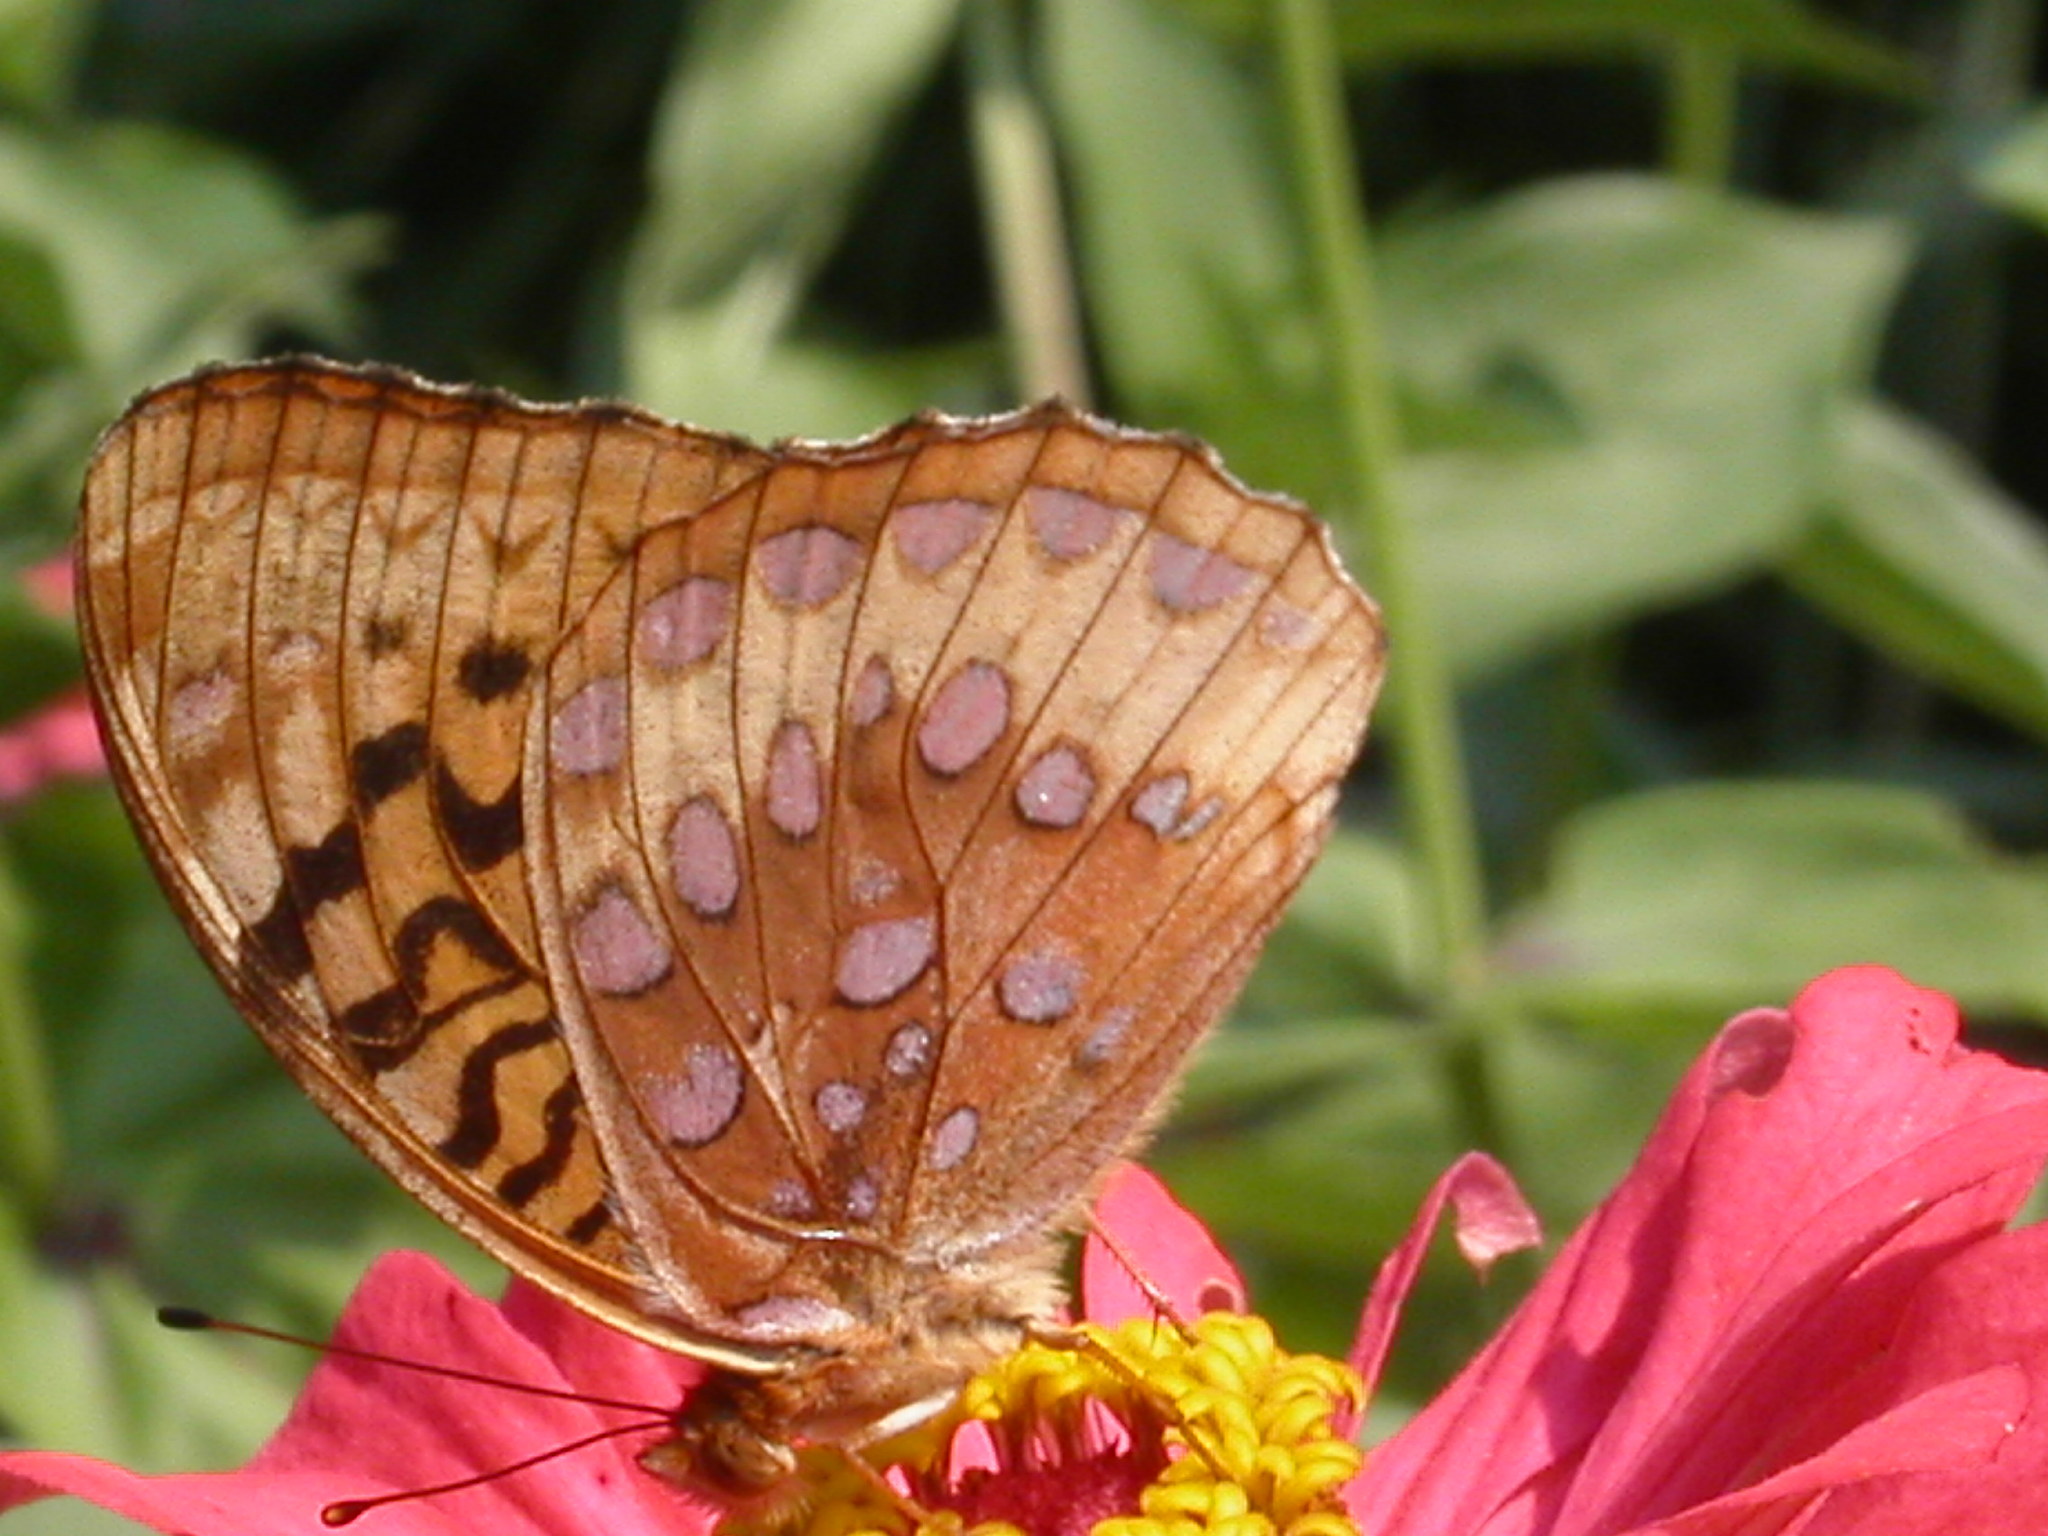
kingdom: Animalia
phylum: Arthropoda
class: Insecta
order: Lepidoptera
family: Nymphalidae
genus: Speyeria
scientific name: Speyeria cybele
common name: Great spangled fritillary
